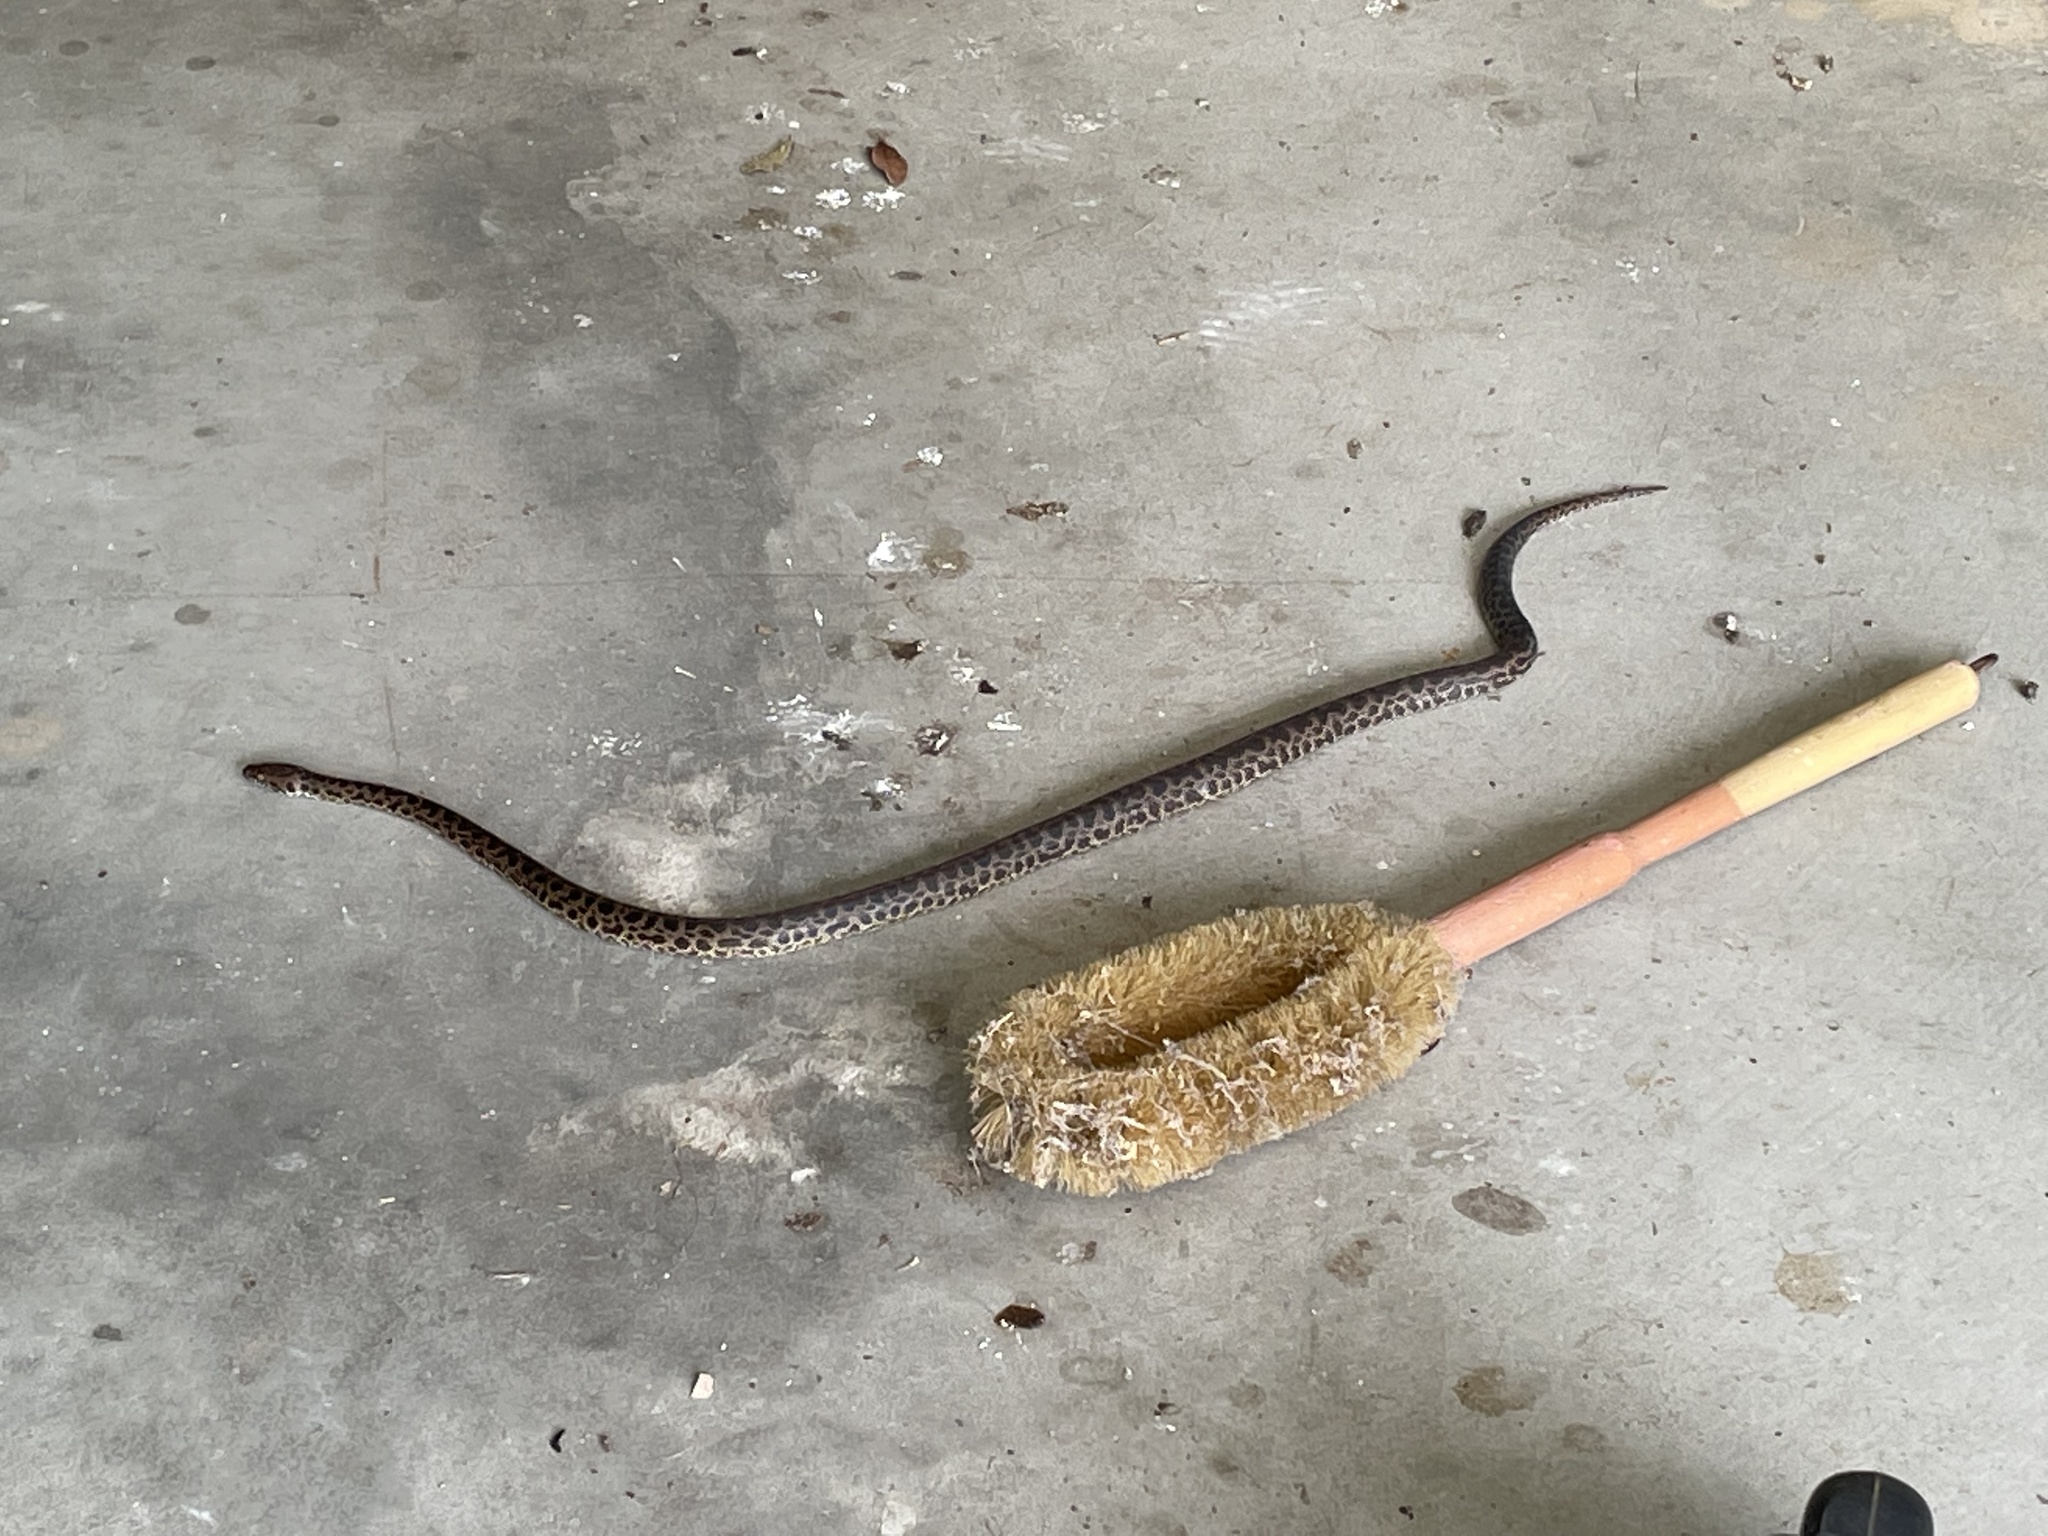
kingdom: Animalia
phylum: Chordata
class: Squamata
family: Pythonidae
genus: Antaresia
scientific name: Antaresia maculosa
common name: Eastern childrens python
